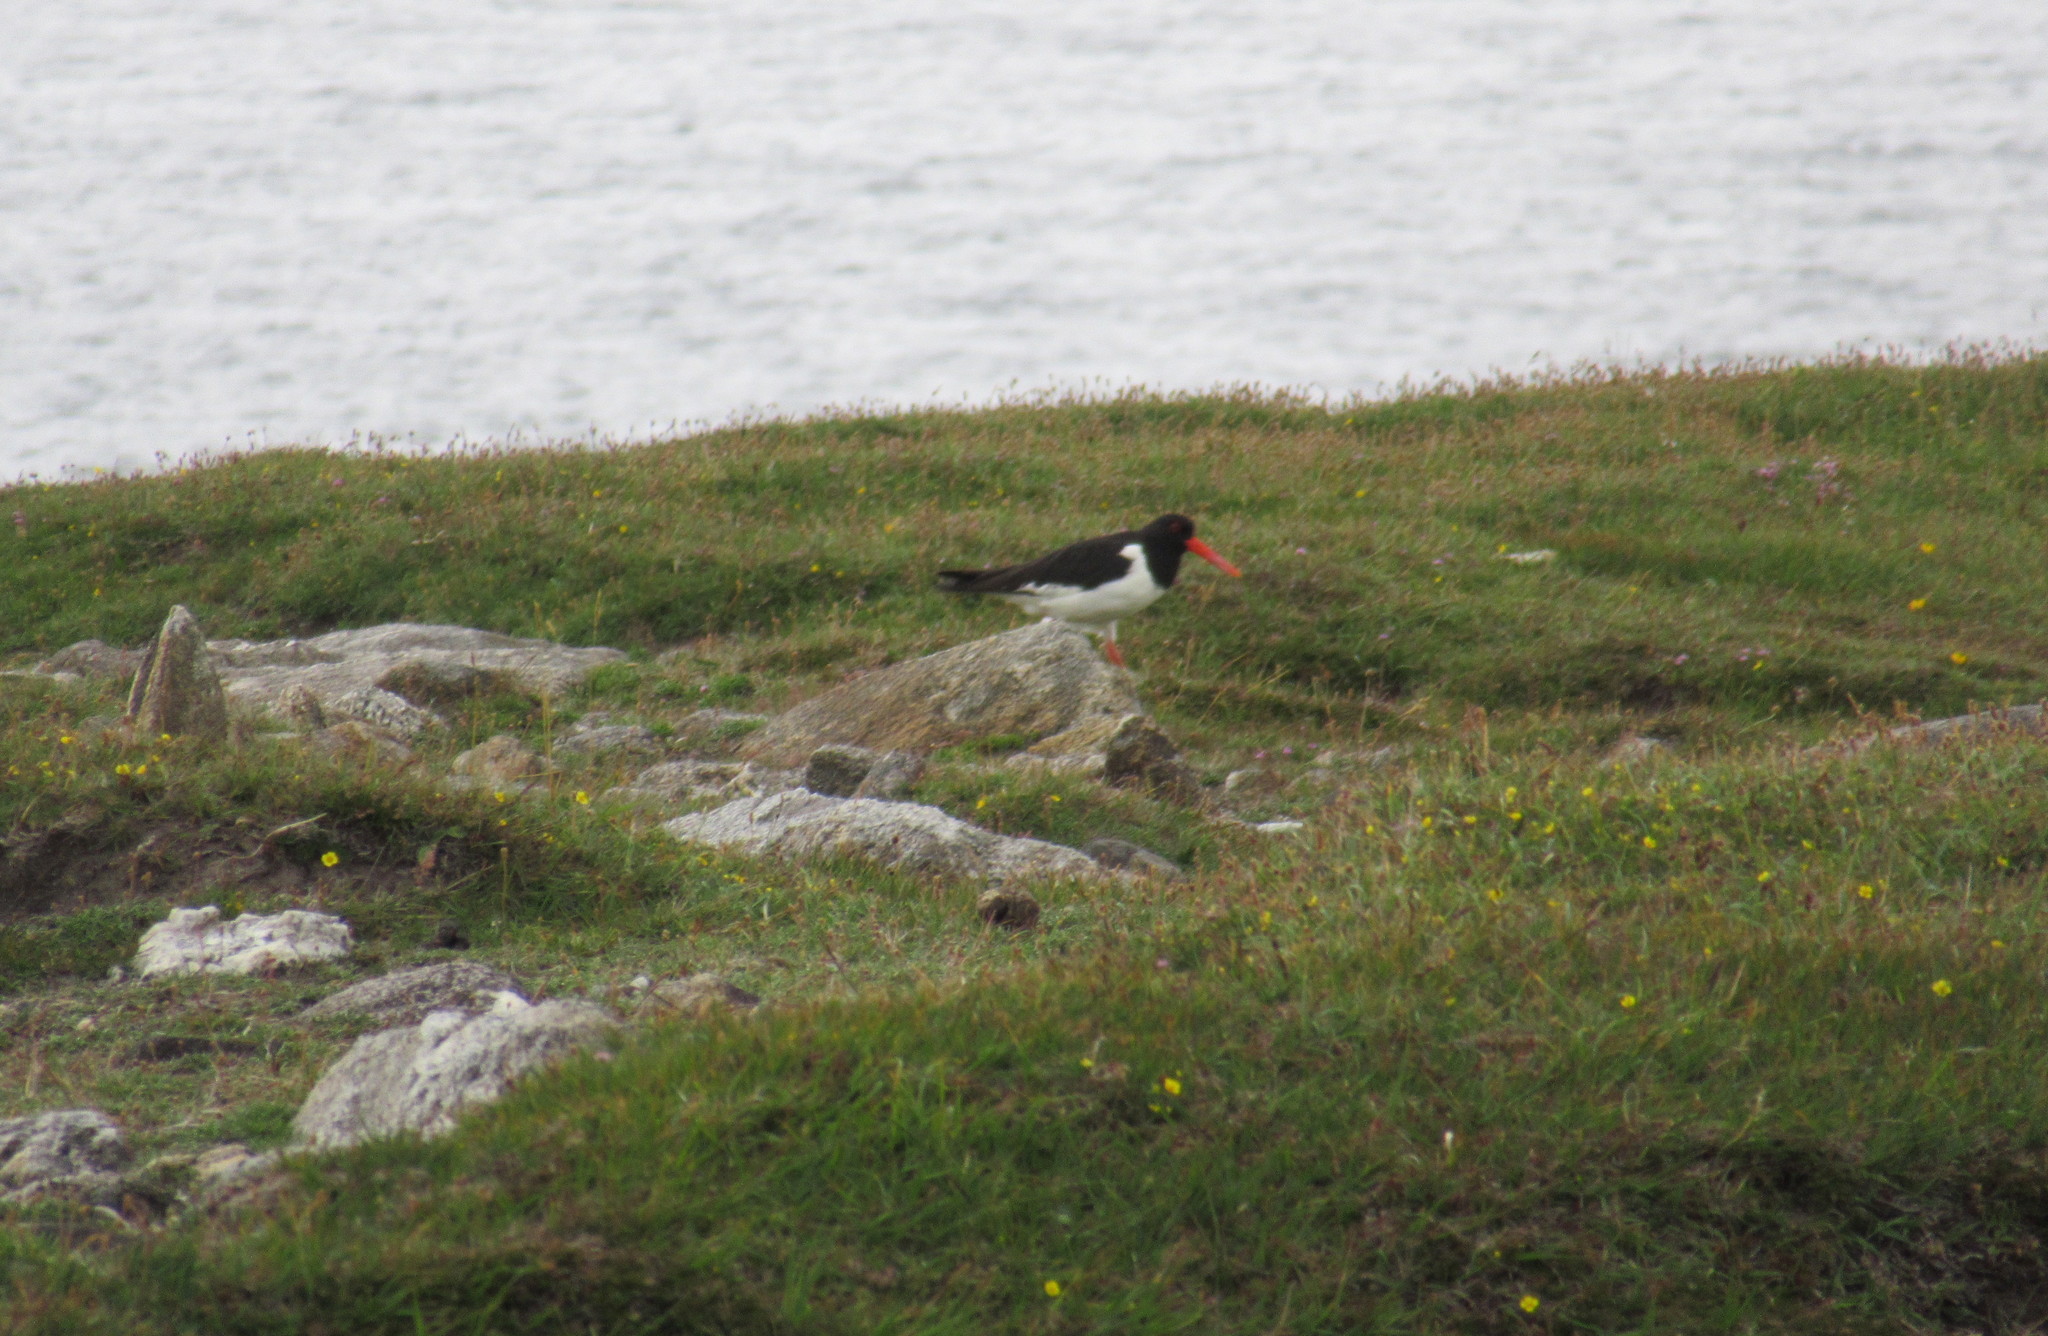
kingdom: Animalia
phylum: Chordata
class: Aves
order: Charadriiformes
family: Haematopodidae
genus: Haematopus
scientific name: Haematopus ostralegus
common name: Eurasian oystercatcher
